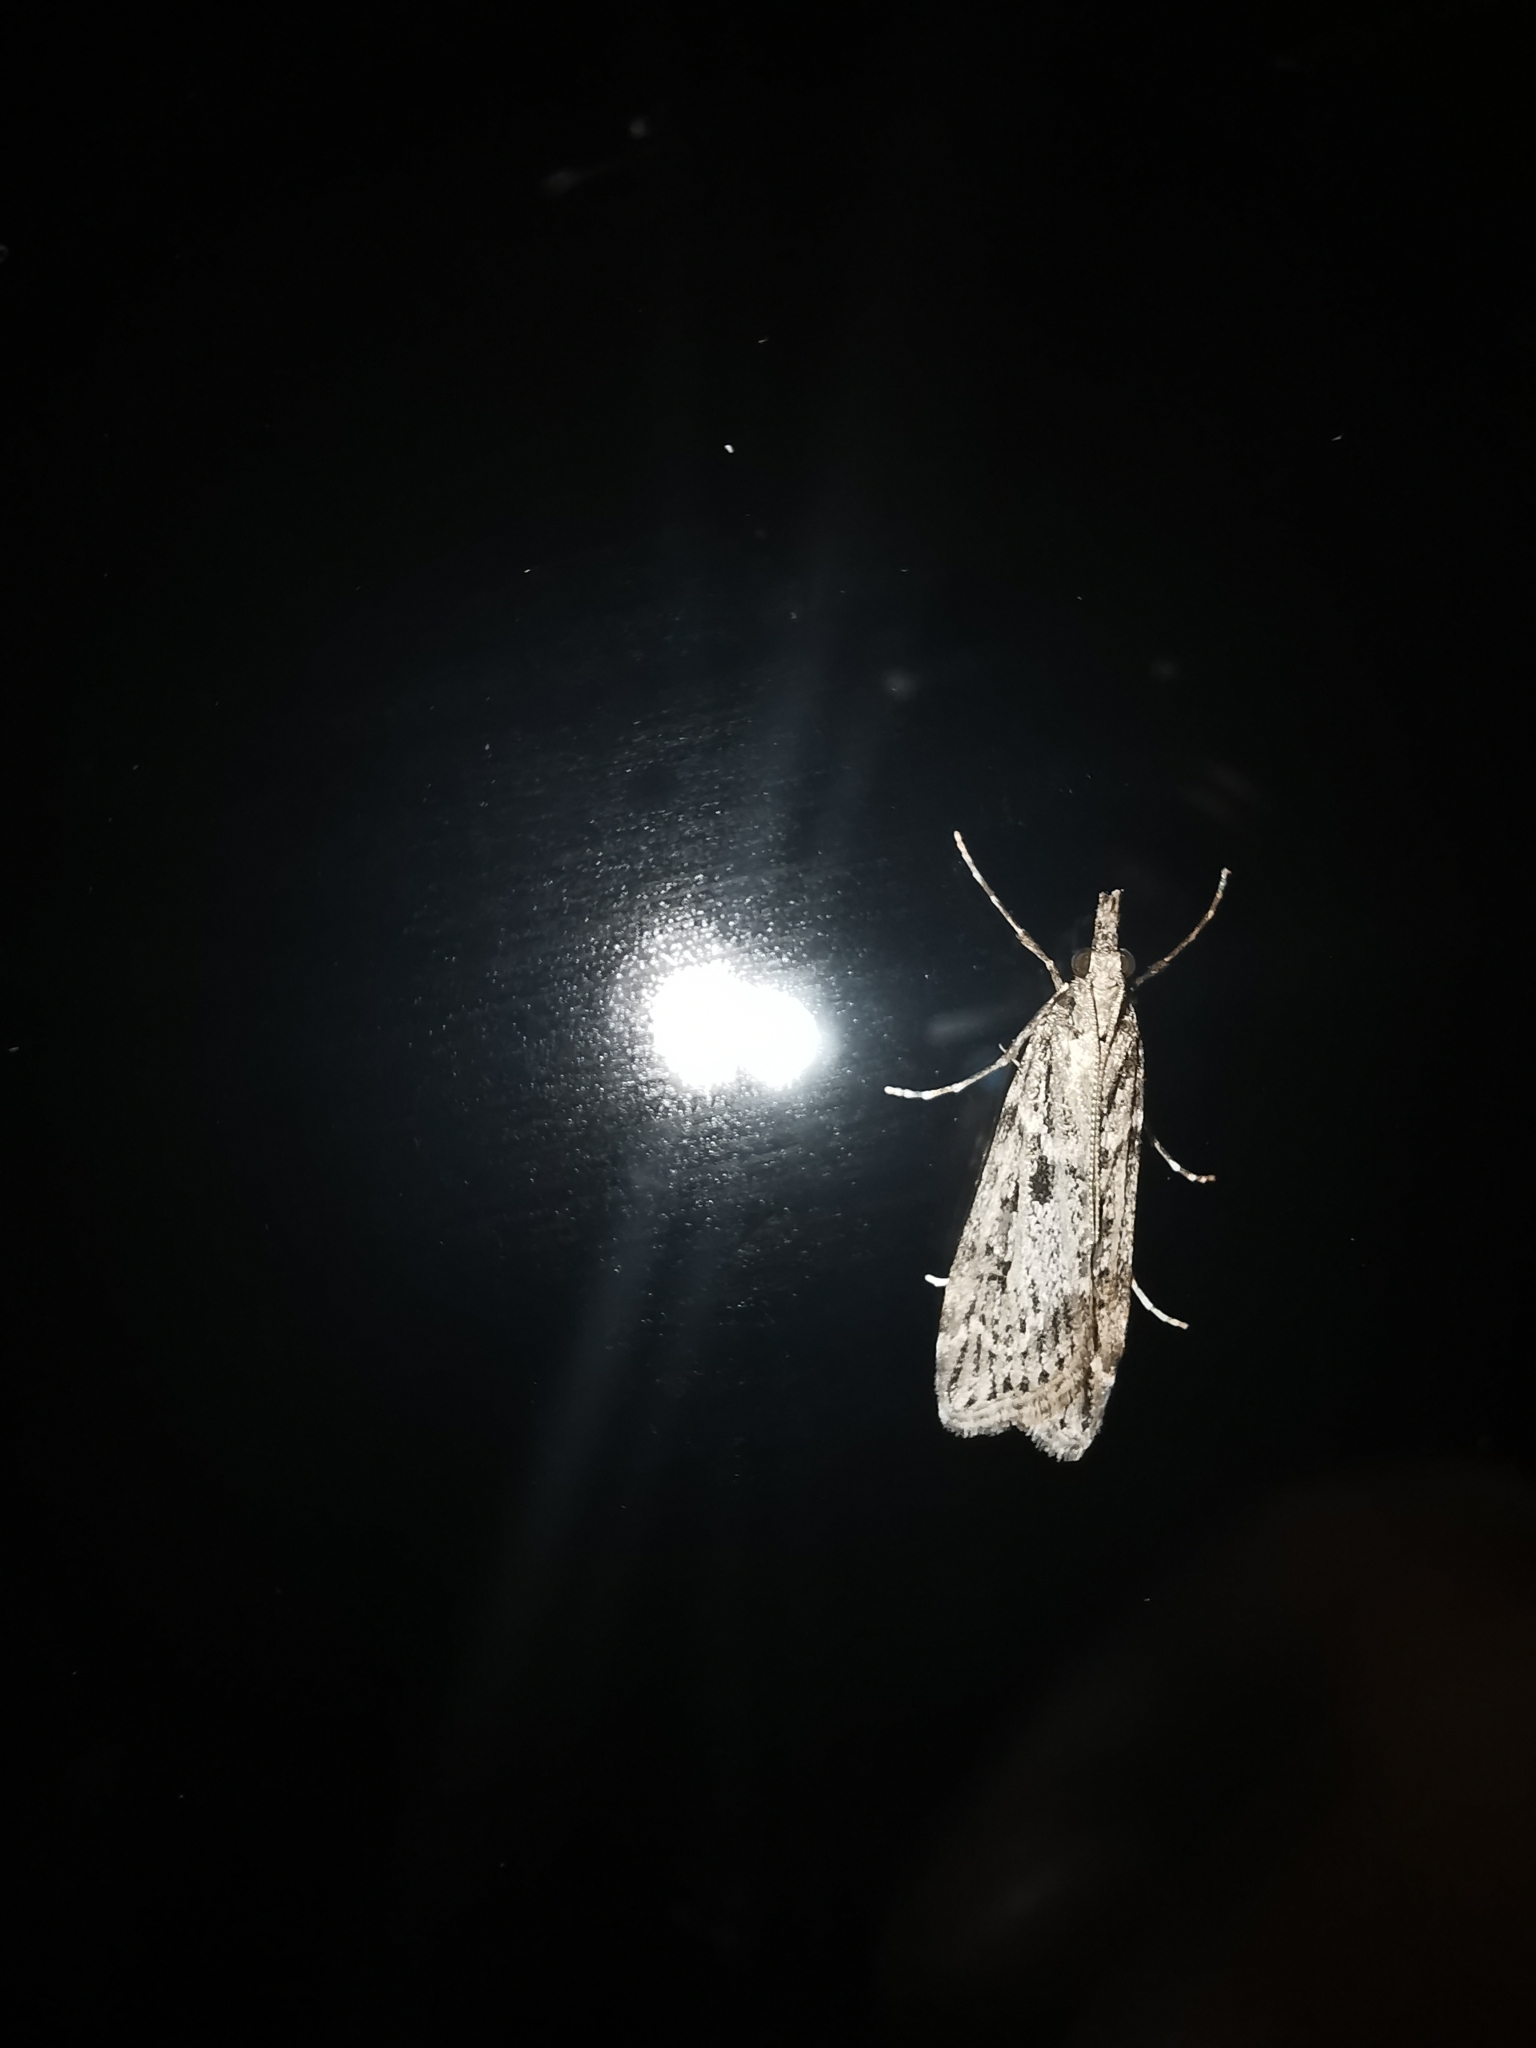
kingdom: Animalia
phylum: Arthropoda
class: Insecta
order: Lepidoptera
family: Crambidae
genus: Eudonia
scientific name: Eudonia angustea
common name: Narrow-winged grey
